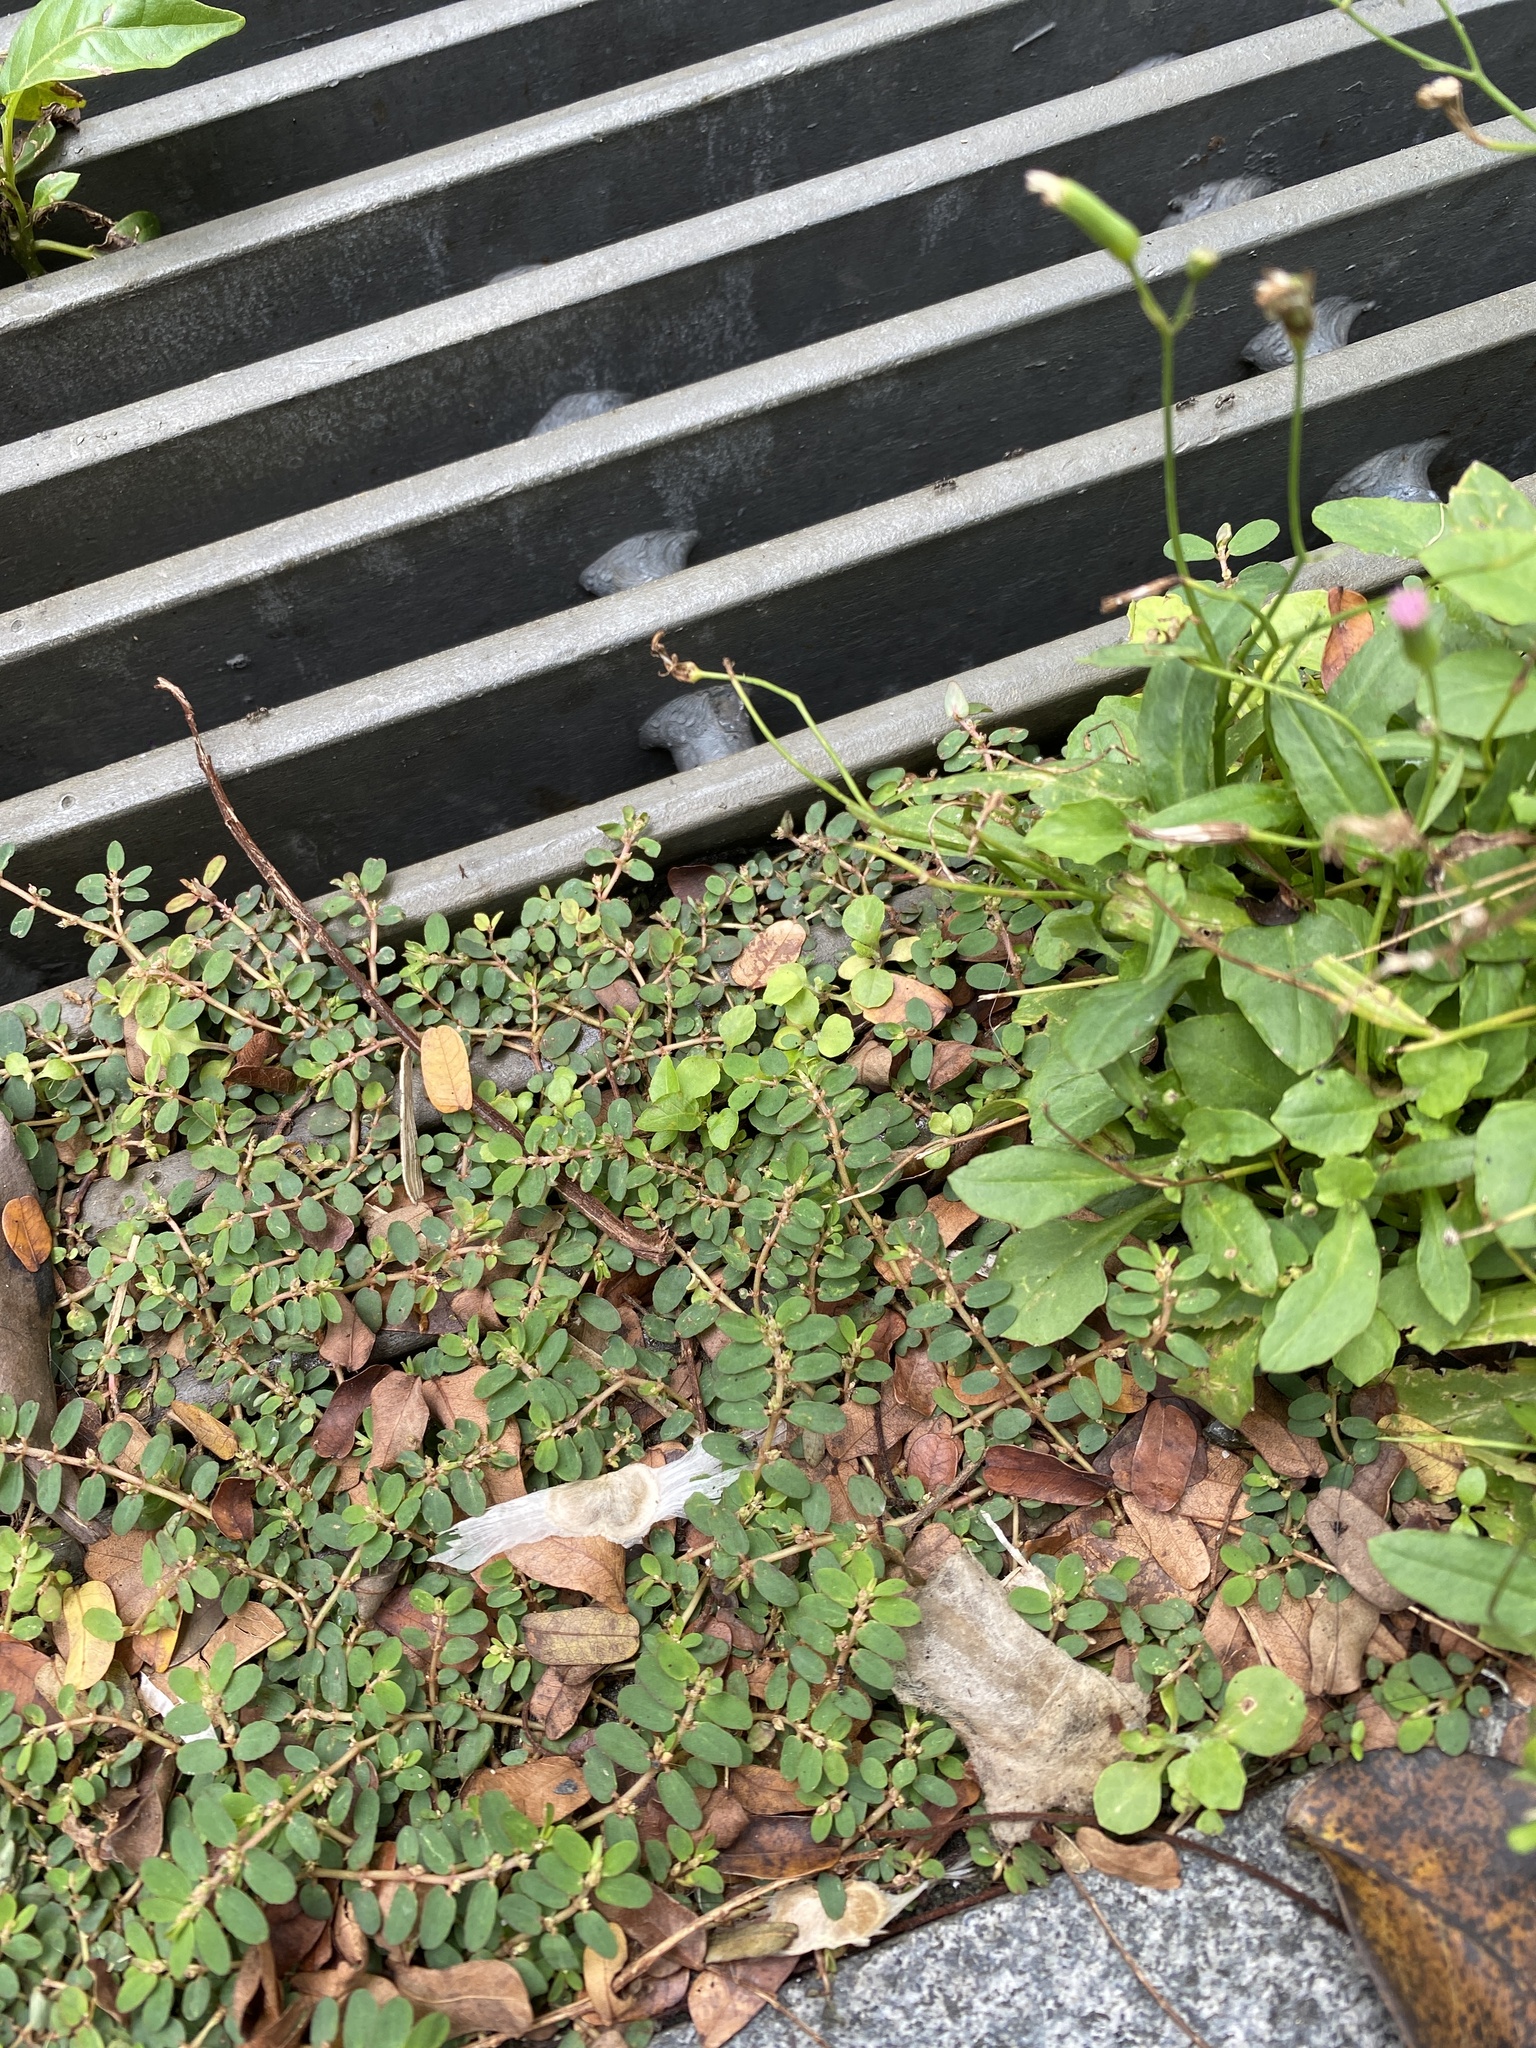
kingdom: Plantae
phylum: Tracheophyta
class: Magnoliopsida
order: Malpighiales
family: Euphorbiaceae
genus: Euphorbia
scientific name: Euphorbia thymifolia
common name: Gulf sandmat
